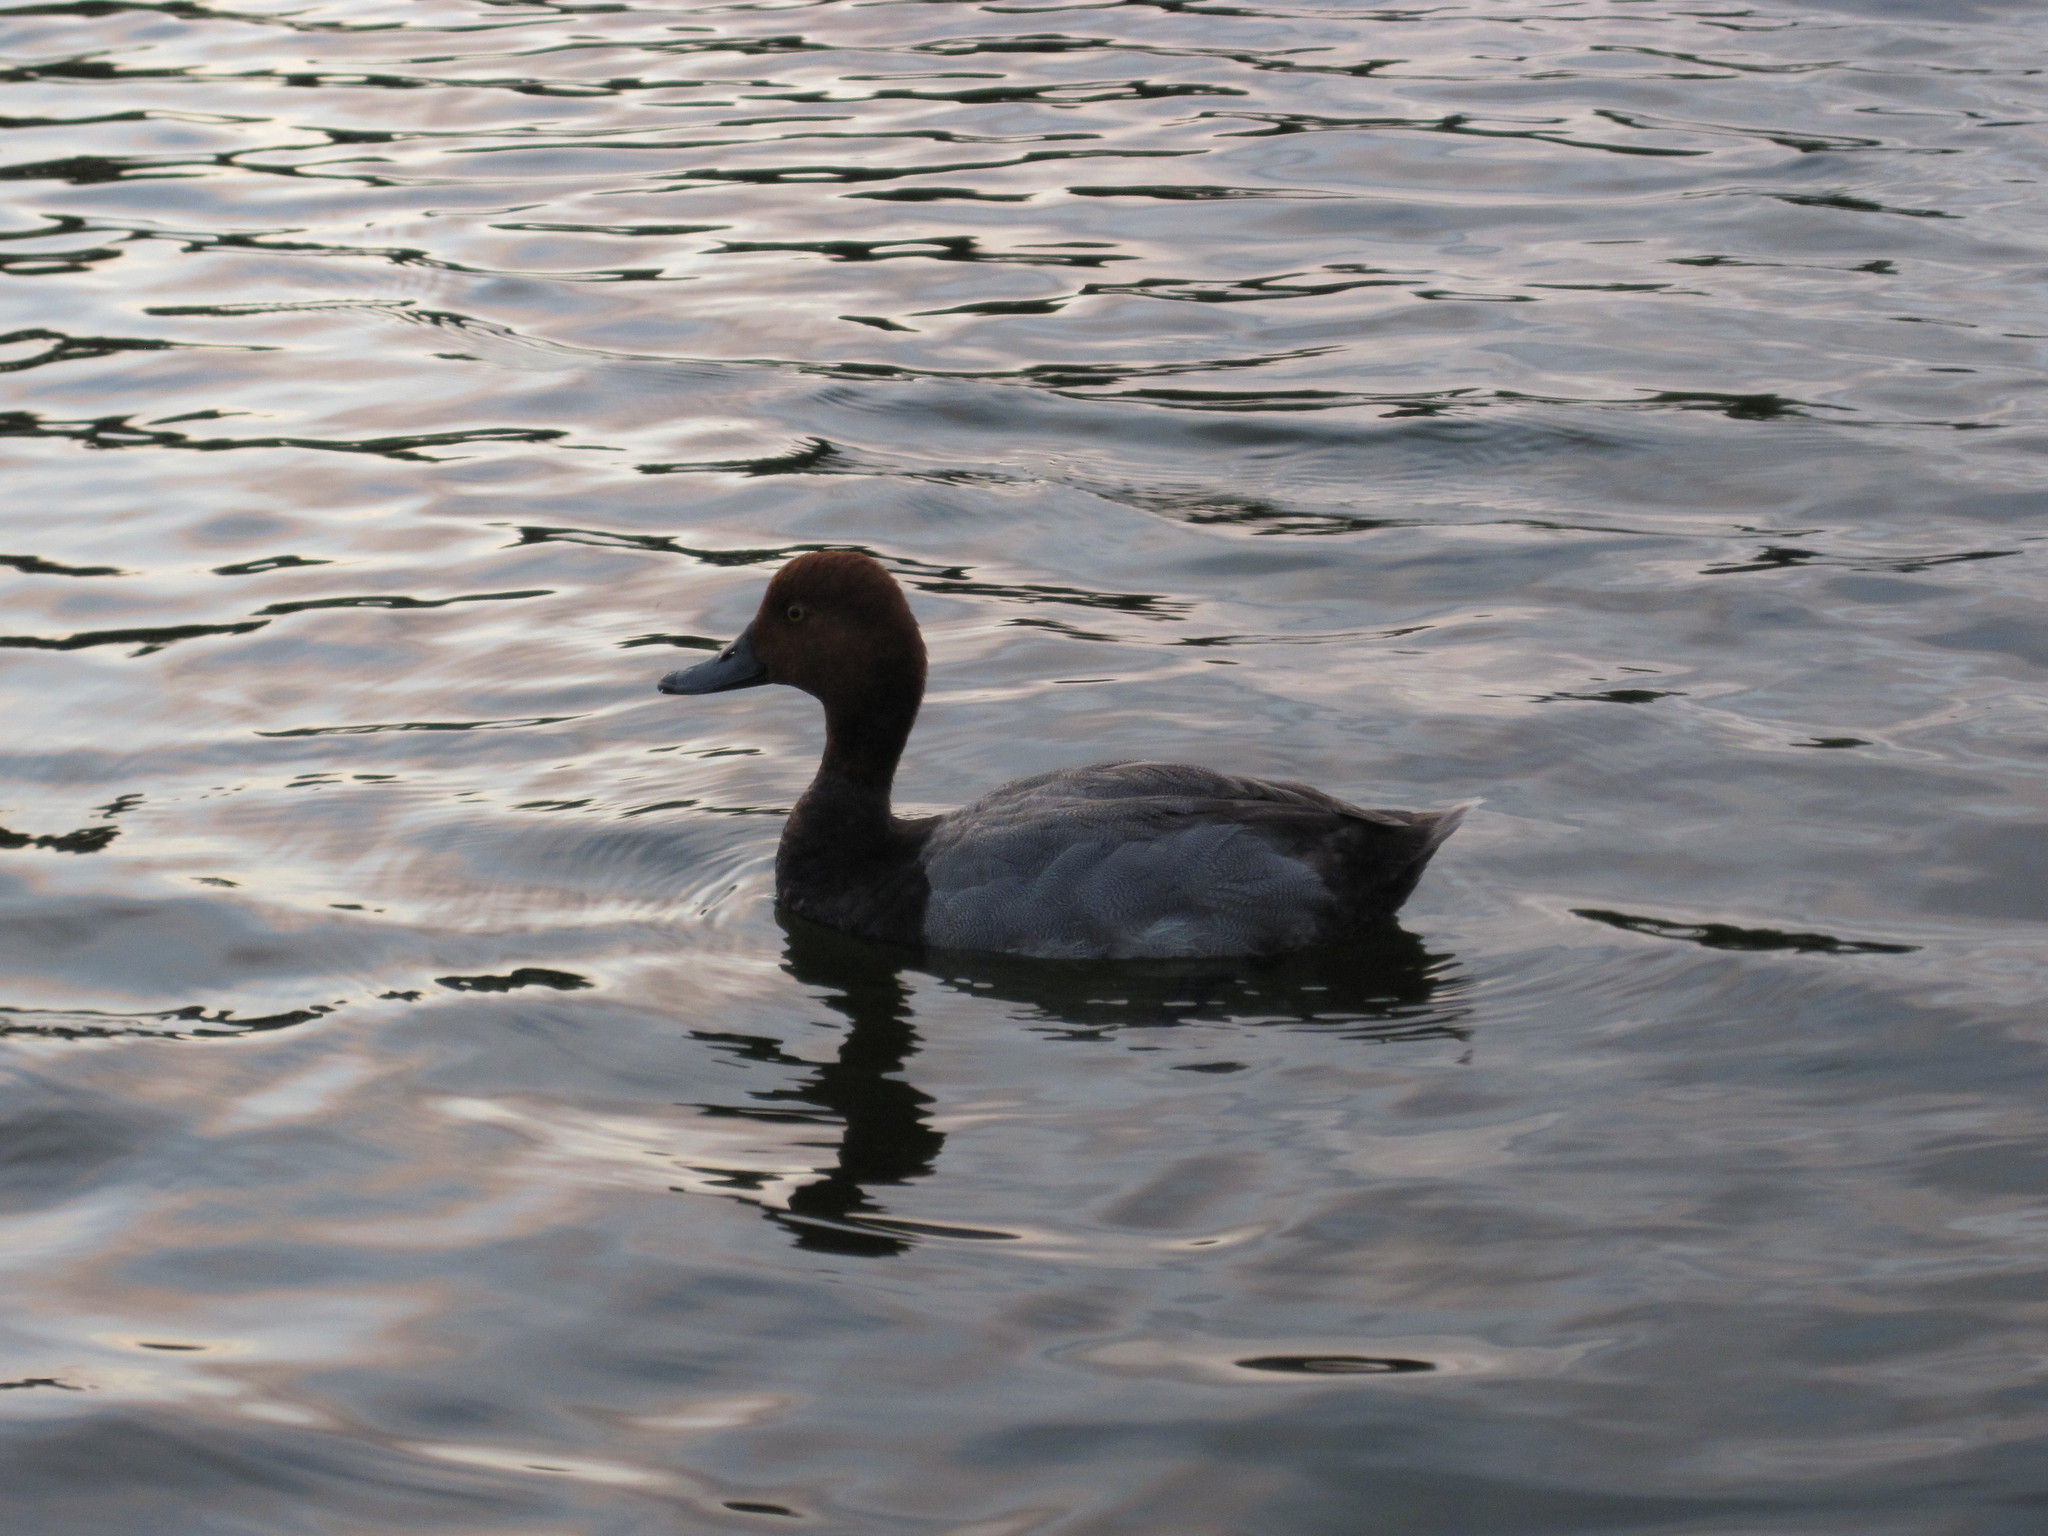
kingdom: Animalia
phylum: Chordata
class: Aves
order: Anseriformes
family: Anatidae
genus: Aythya
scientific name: Aythya americana
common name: Redhead
